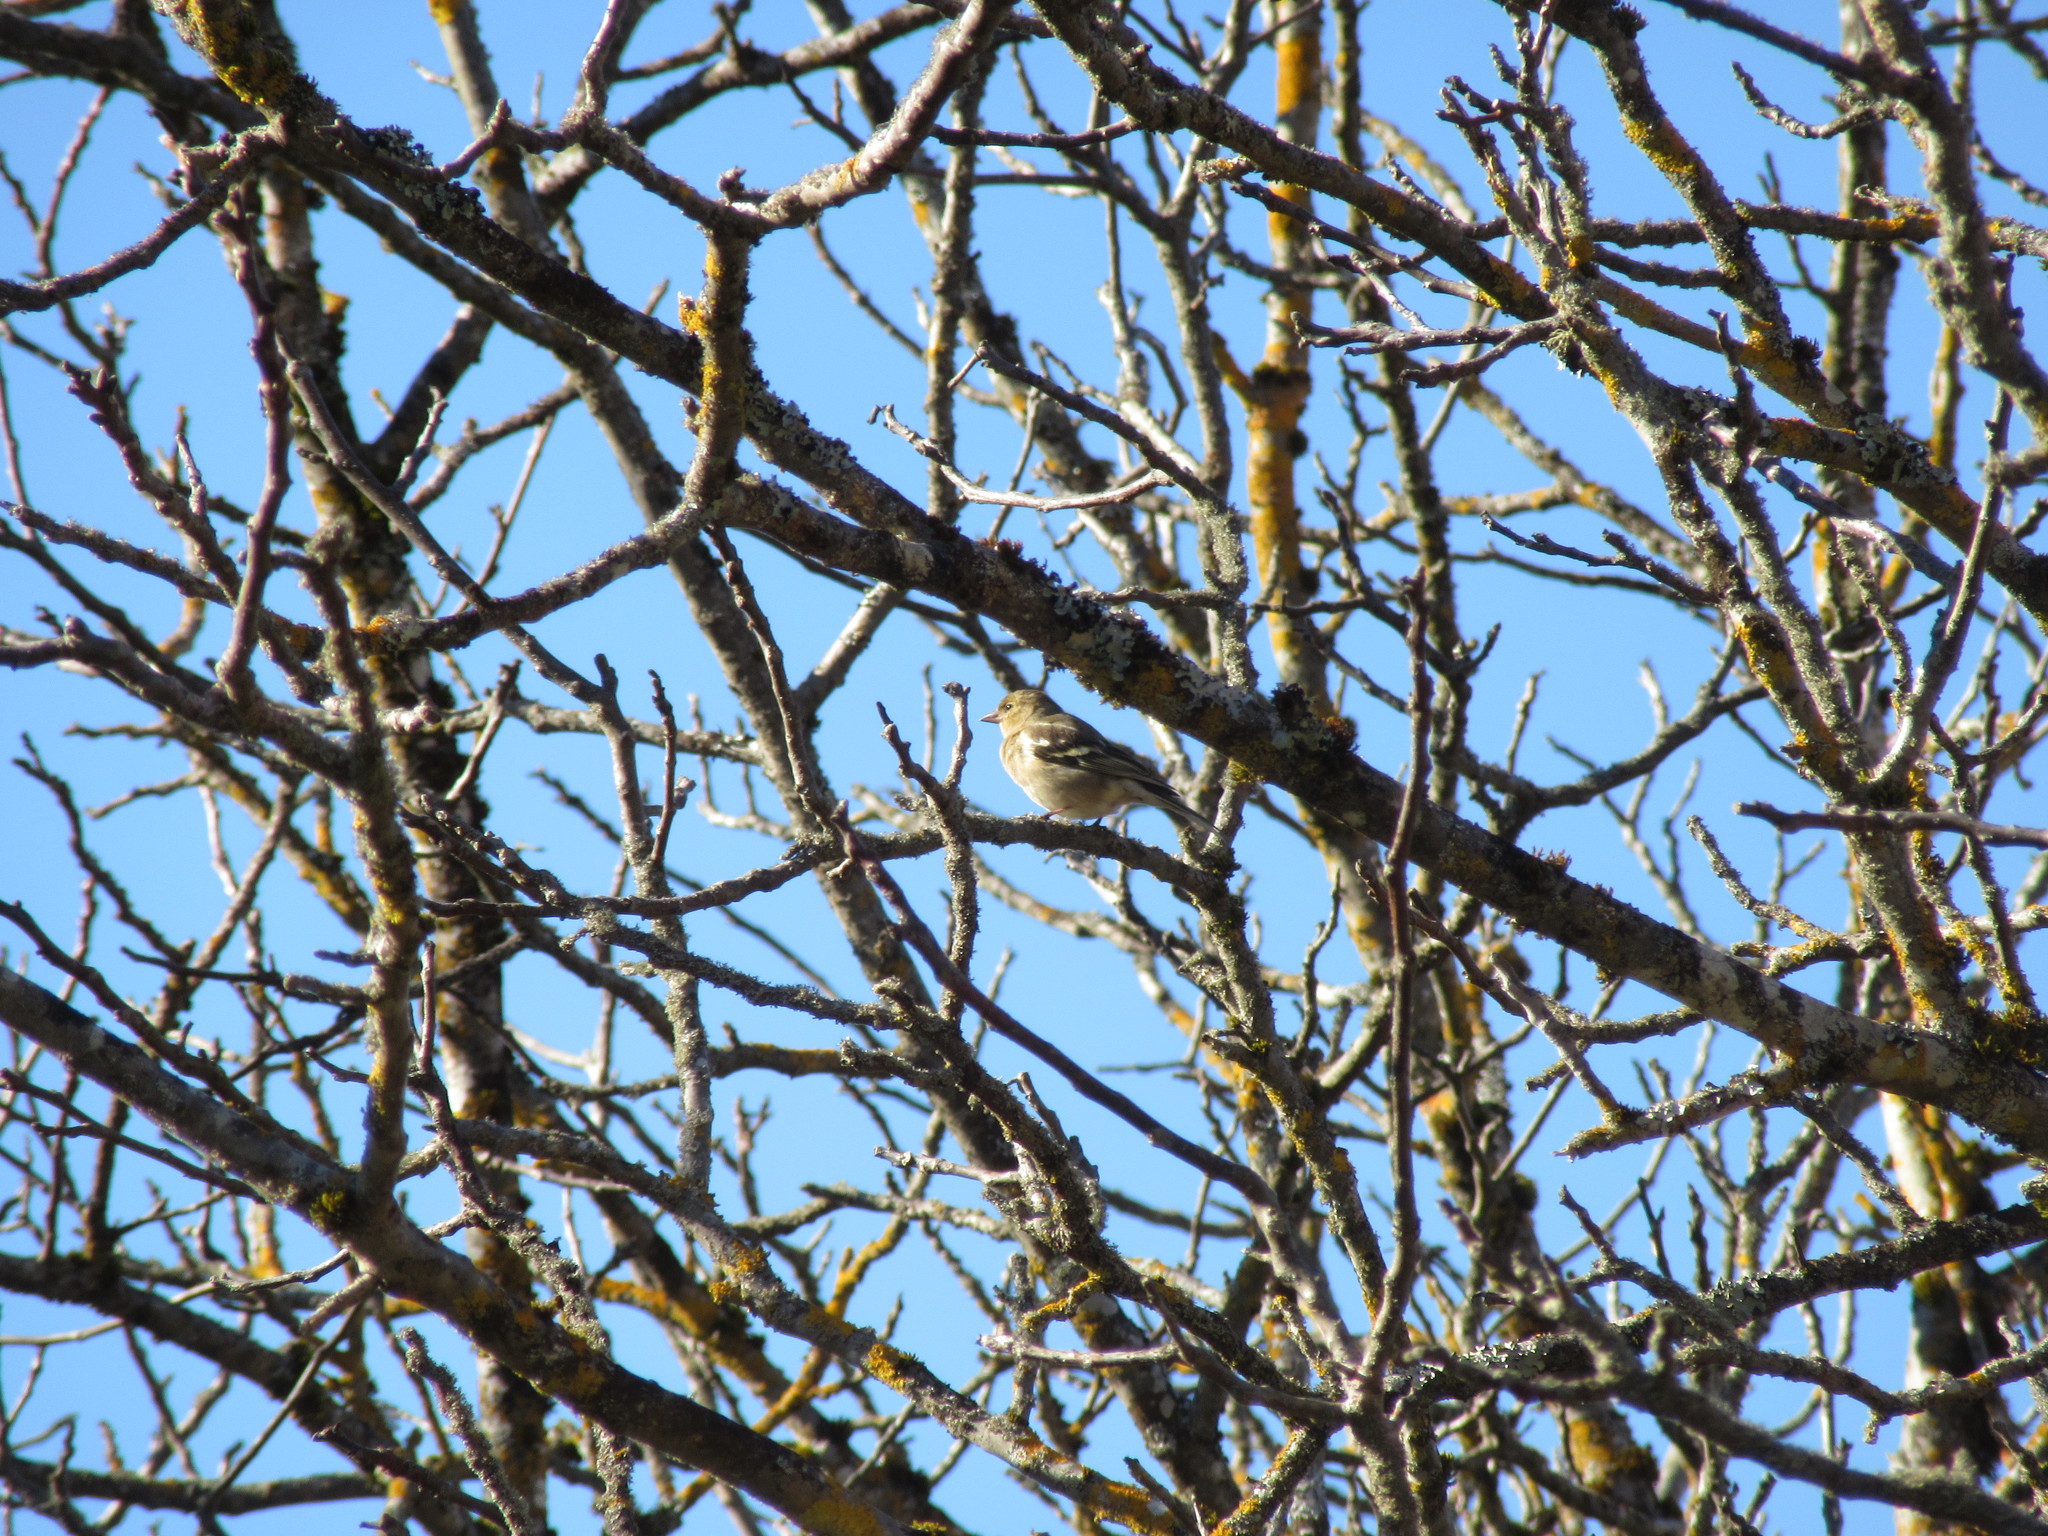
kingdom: Animalia
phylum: Chordata
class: Aves
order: Passeriformes
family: Fringillidae
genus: Fringilla
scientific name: Fringilla coelebs
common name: Common chaffinch
